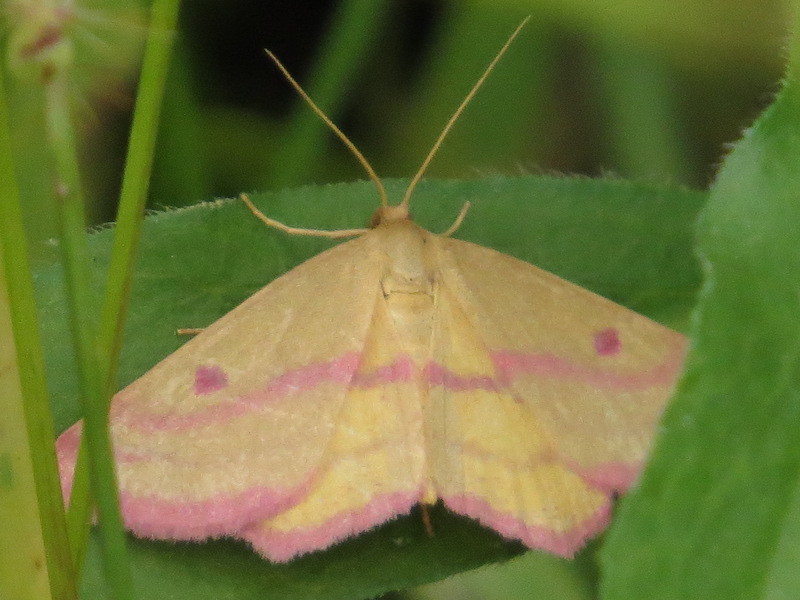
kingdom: Animalia
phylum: Arthropoda
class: Insecta
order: Lepidoptera
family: Geometridae
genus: Haematopis
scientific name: Haematopis grataria
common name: Chickweed geometer
